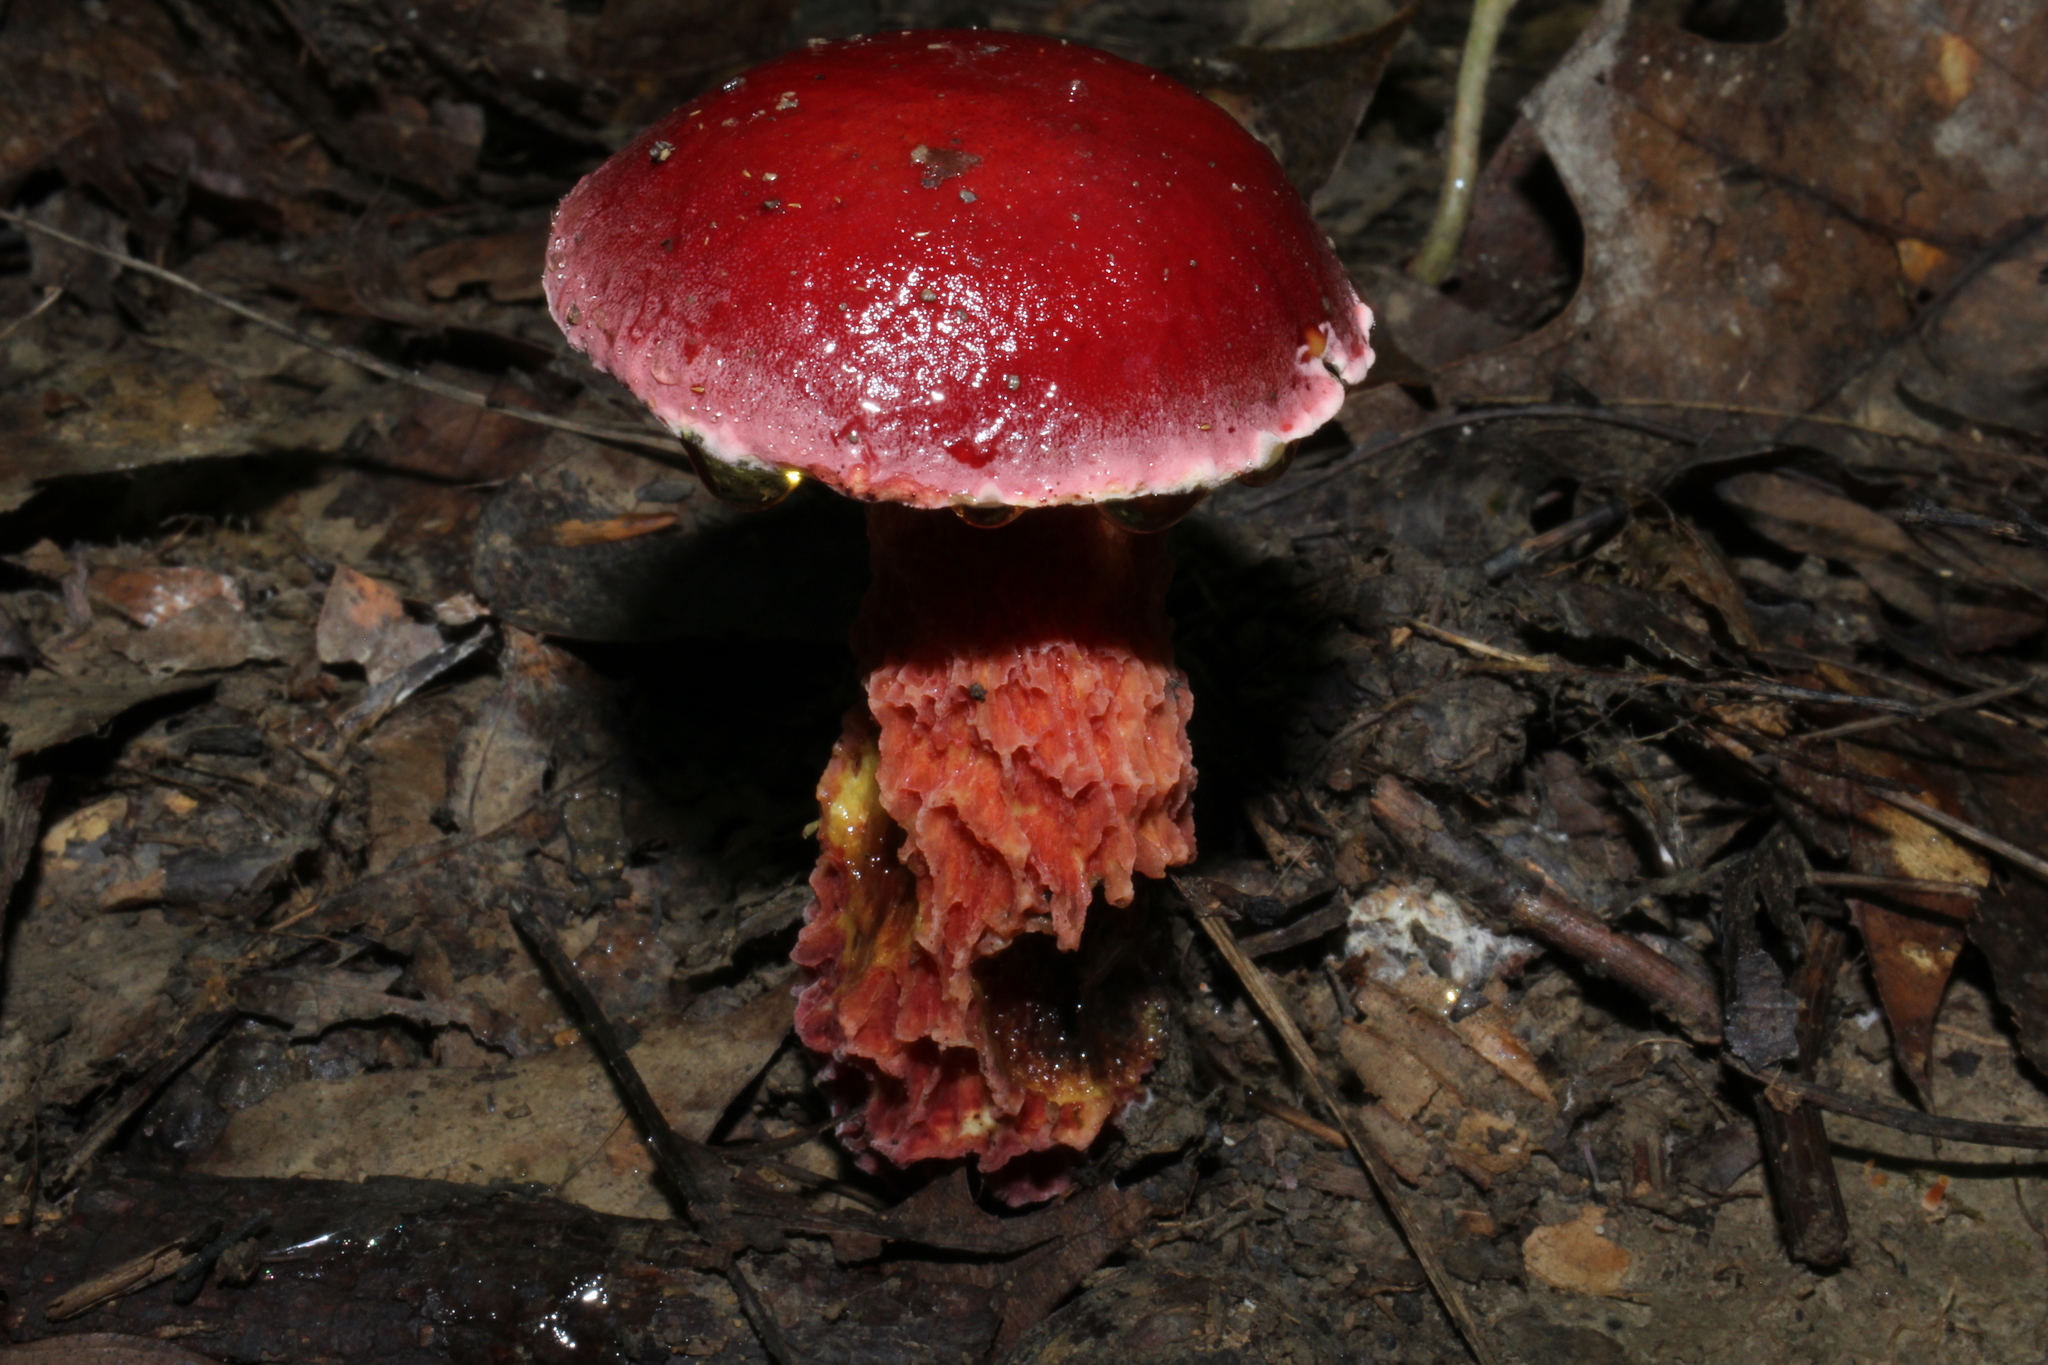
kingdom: Fungi
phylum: Basidiomycota
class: Agaricomycetes
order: Boletales
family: Boletaceae
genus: Butyriboletus
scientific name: Butyriboletus frostii
